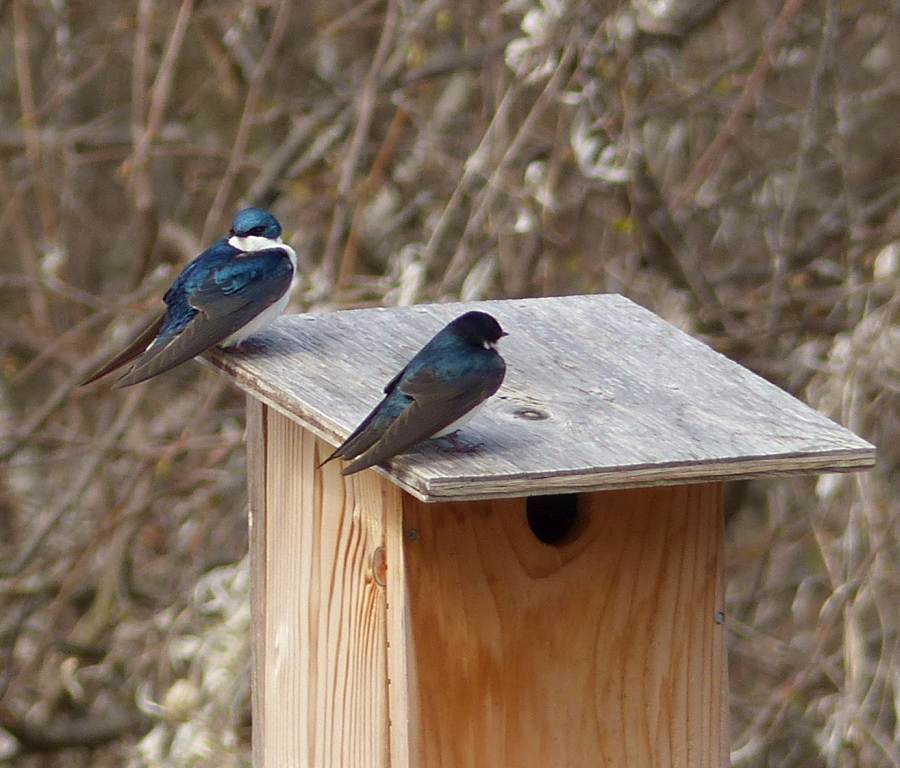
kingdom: Animalia
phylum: Chordata
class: Aves
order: Passeriformes
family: Hirundinidae
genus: Tachycineta
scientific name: Tachycineta bicolor
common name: Tree swallow
